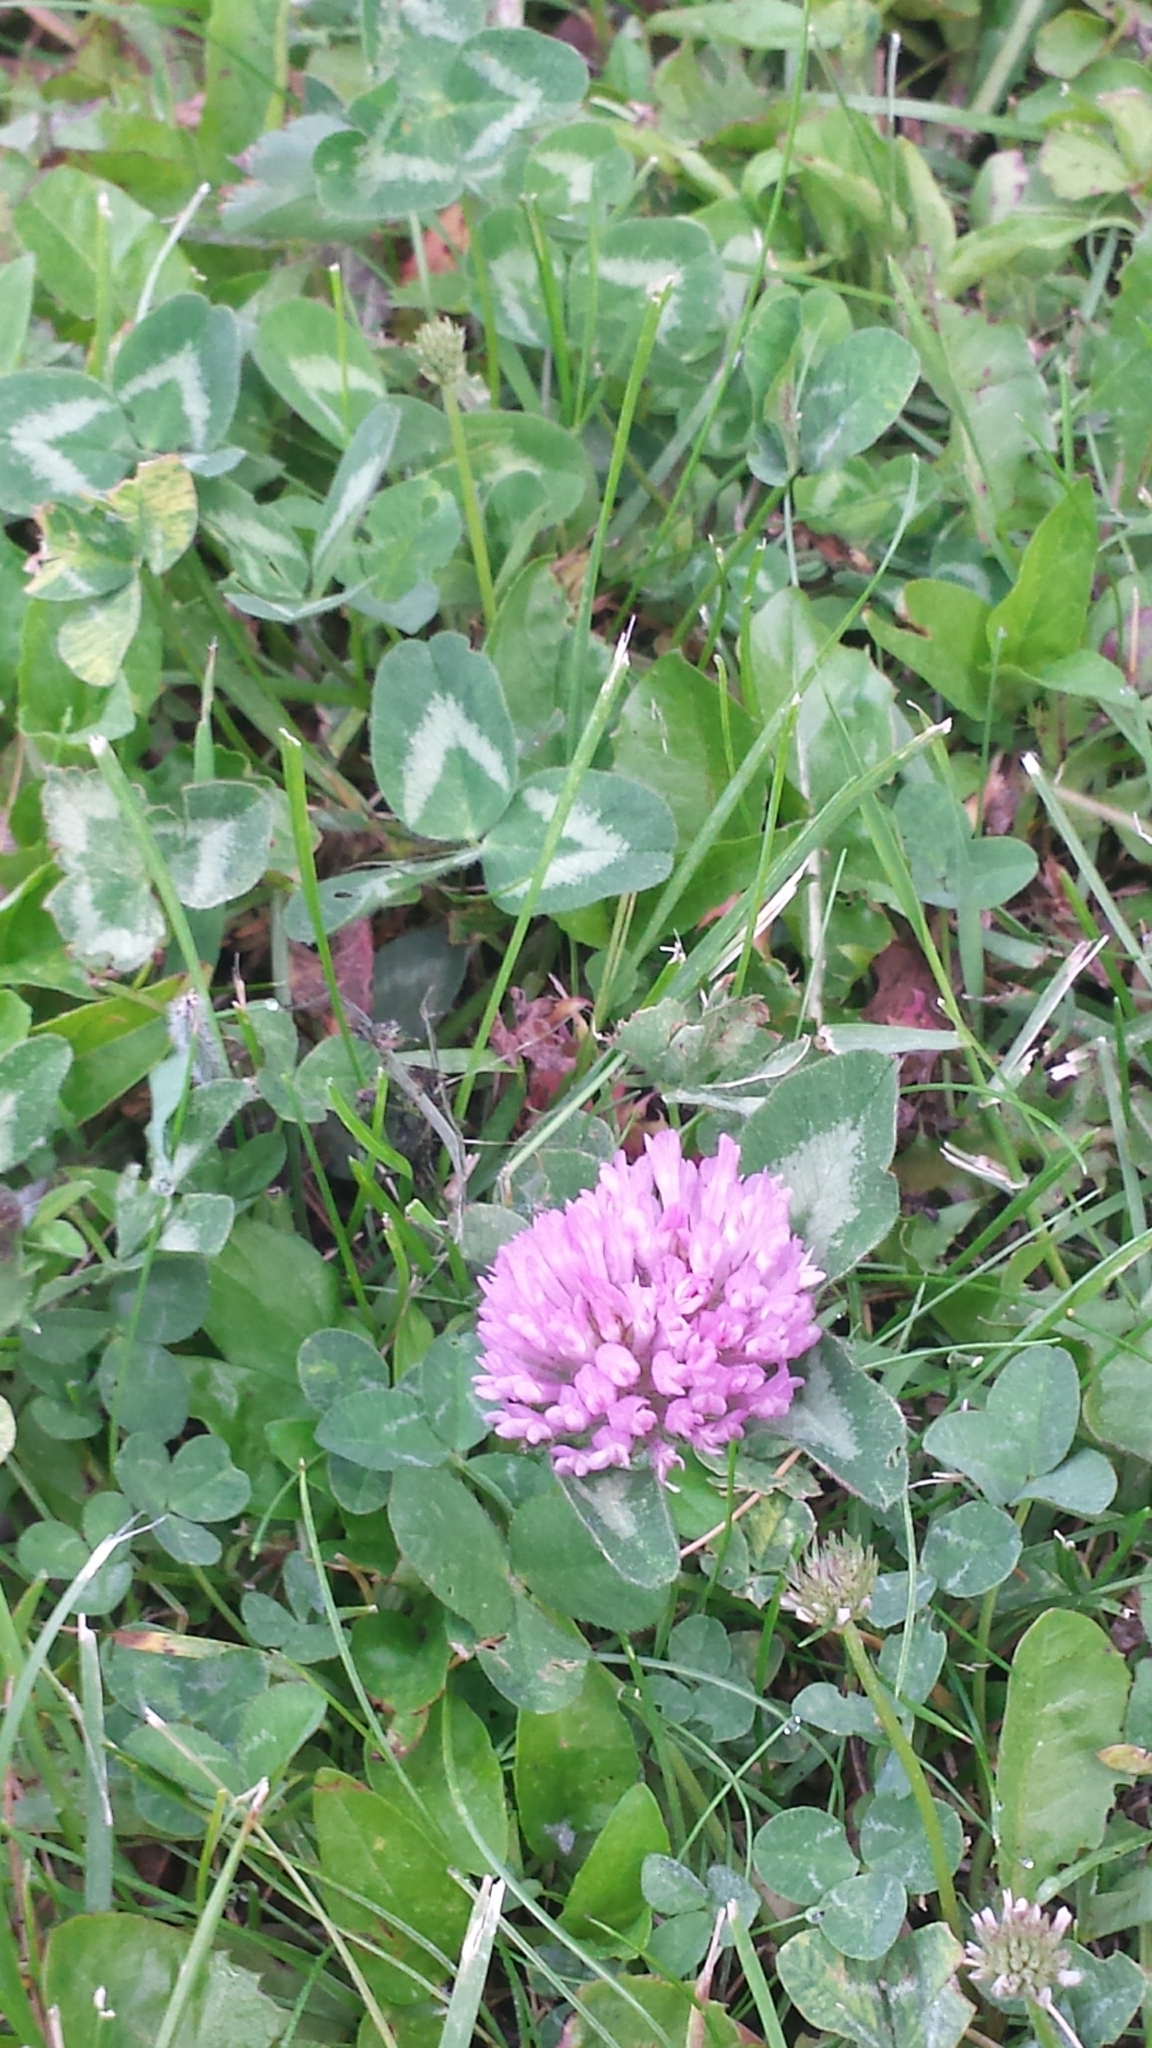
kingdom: Plantae
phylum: Tracheophyta
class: Magnoliopsida
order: Fabales
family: Fabaceae
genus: Trifolium
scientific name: Trifolium pratense
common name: Red clover
